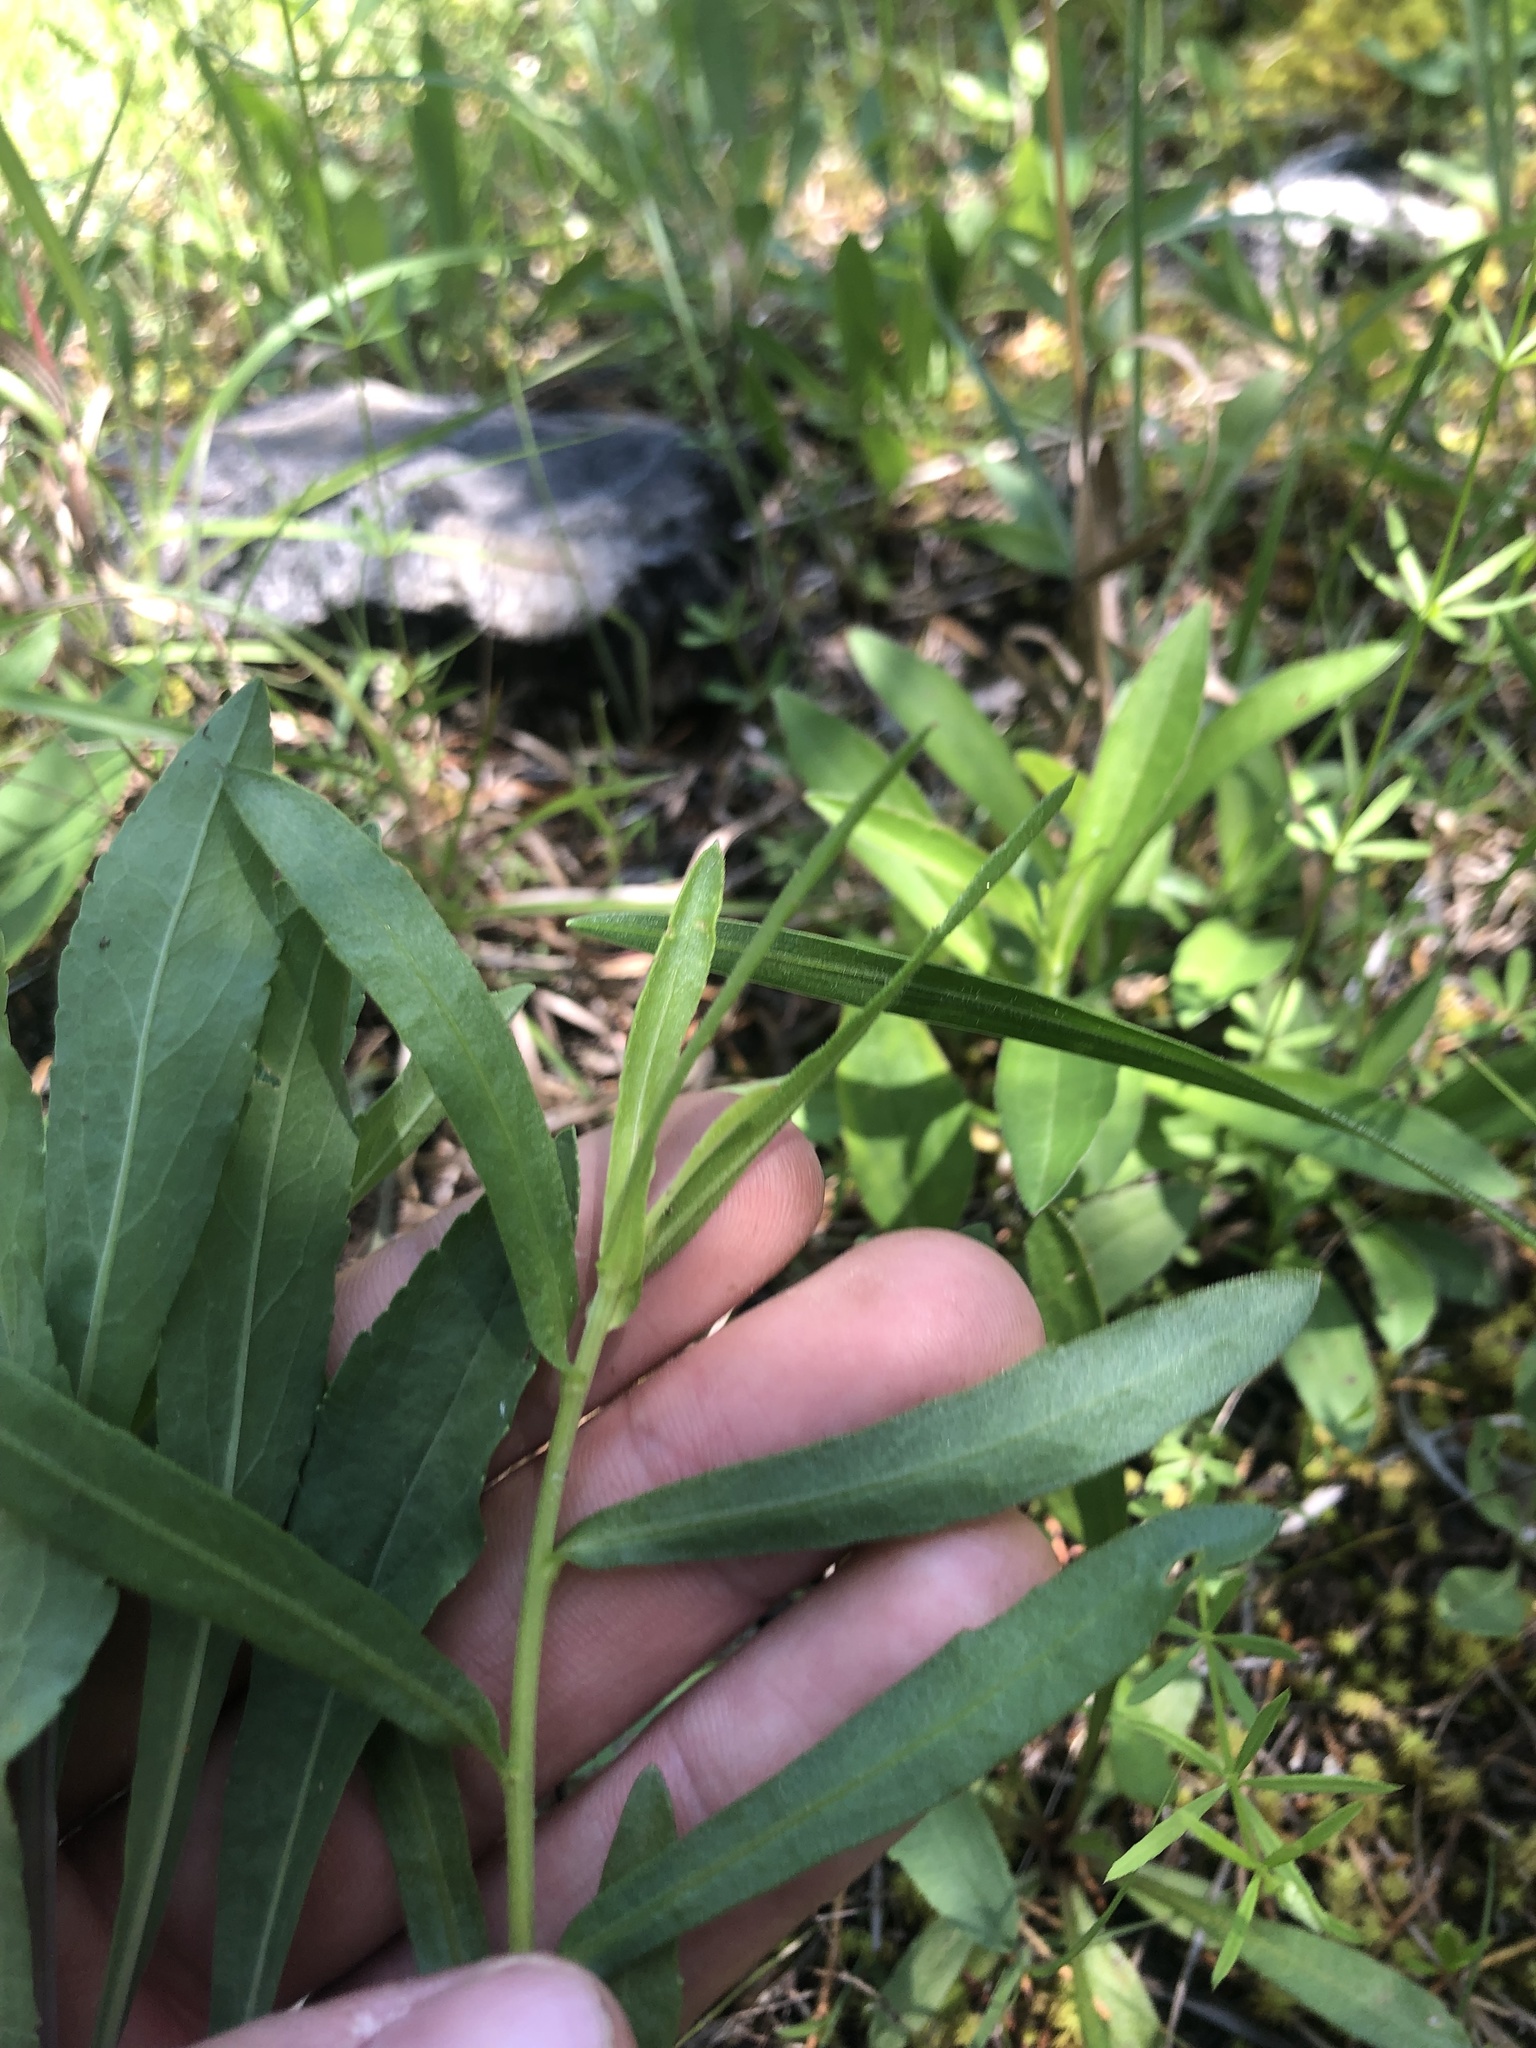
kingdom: Plantae
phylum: Tracheophyta
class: Magnoliopsida
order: Asterales
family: Asteraceae
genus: Gaillardia
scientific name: Gaillardia aestivalis
